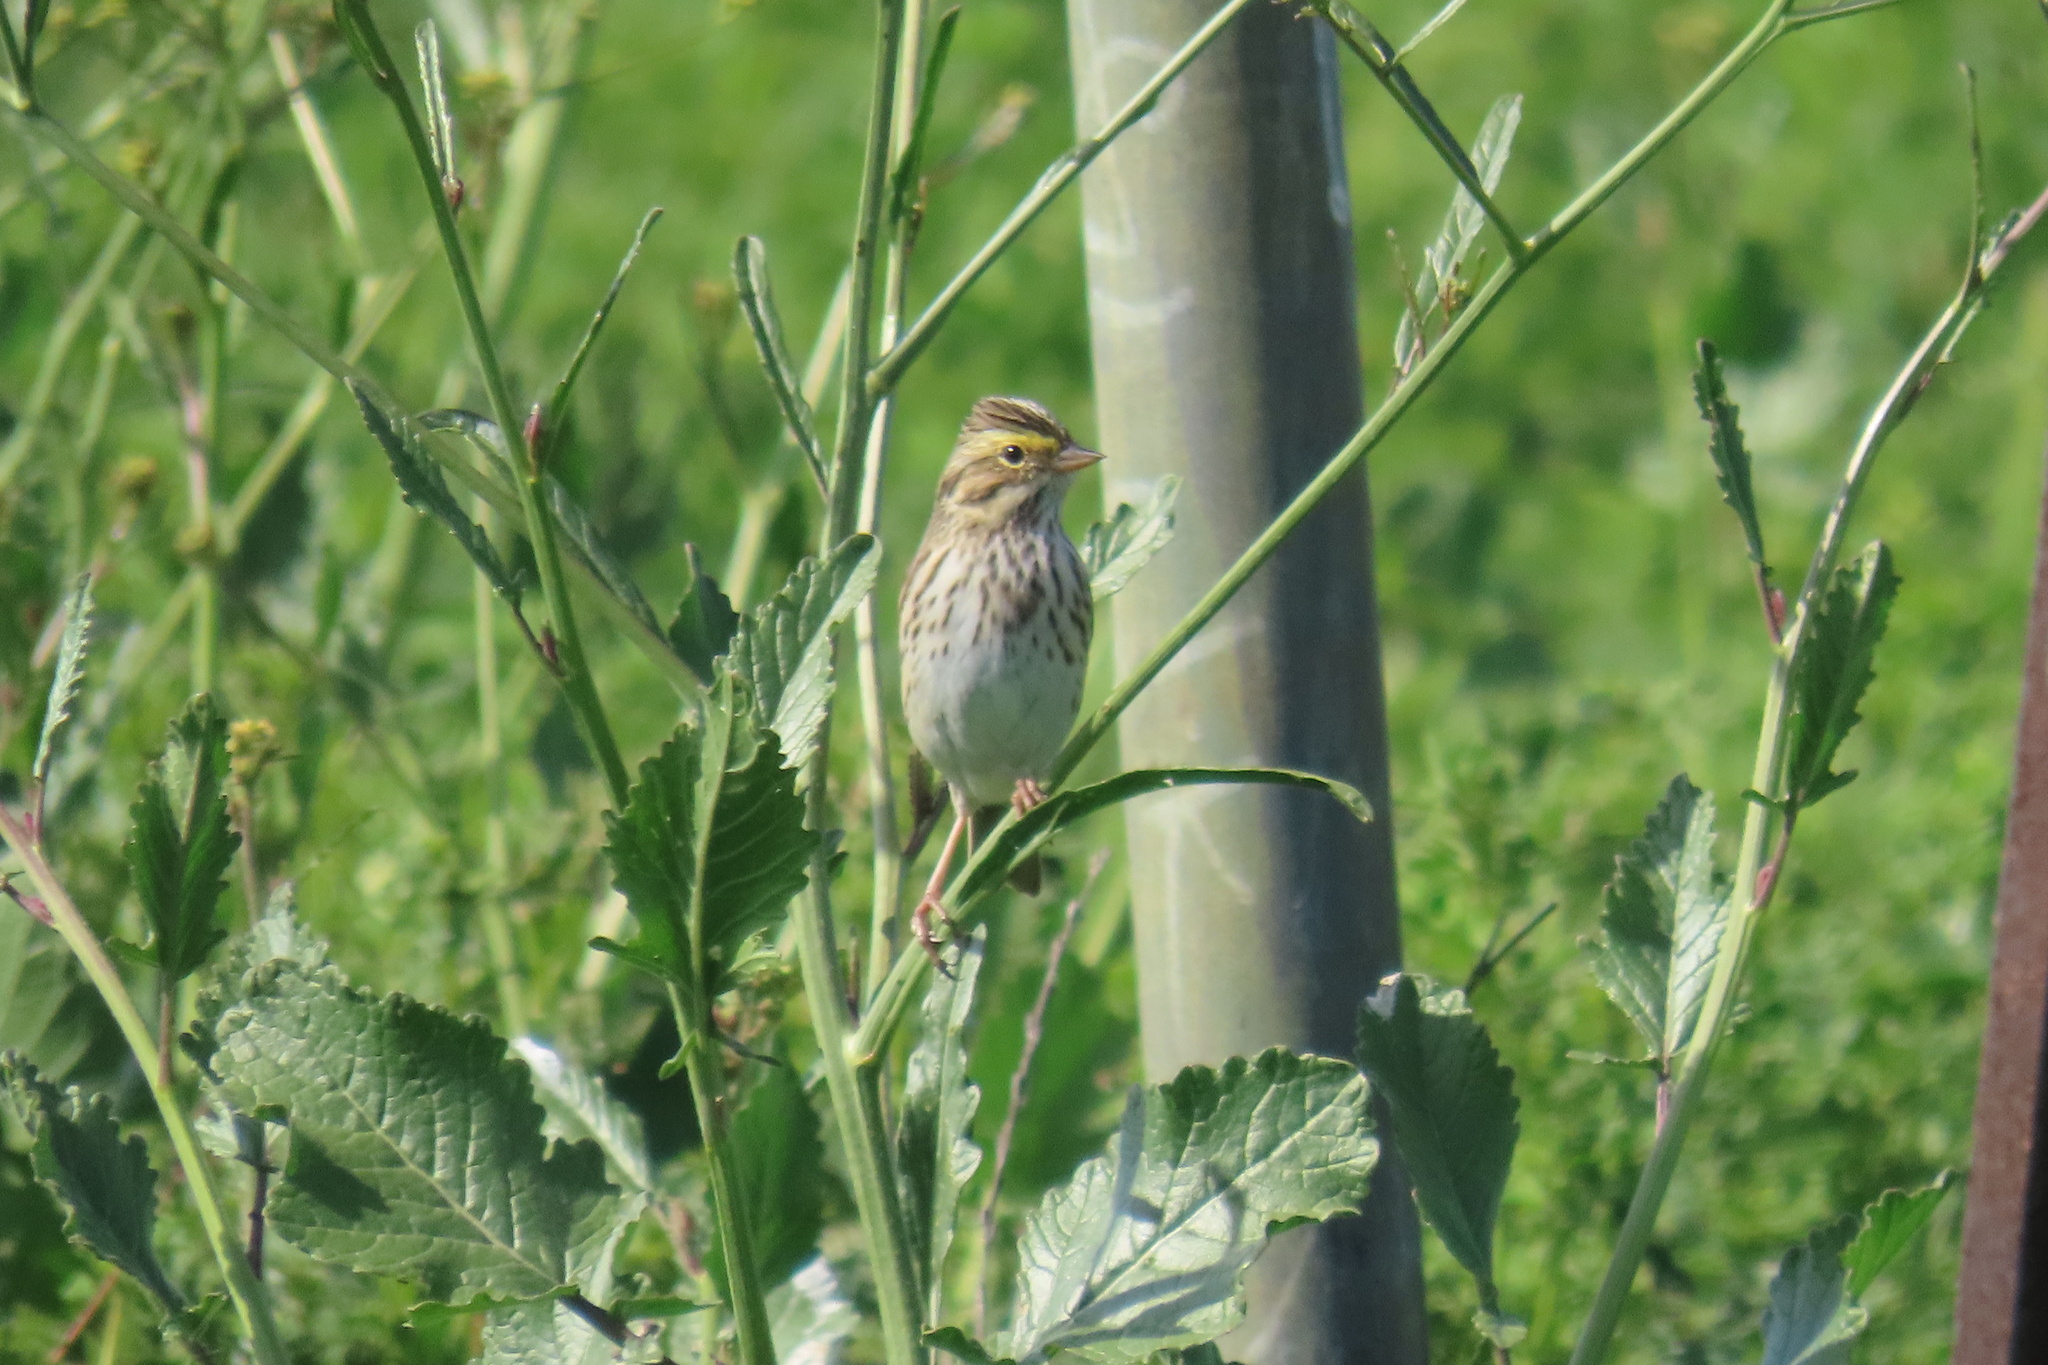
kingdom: Animalia
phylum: Chordata
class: Aves
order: Passeriformes
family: Passerellidae
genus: Passerculus
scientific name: Passerculus sandwichensis
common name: Savannah sparrow
